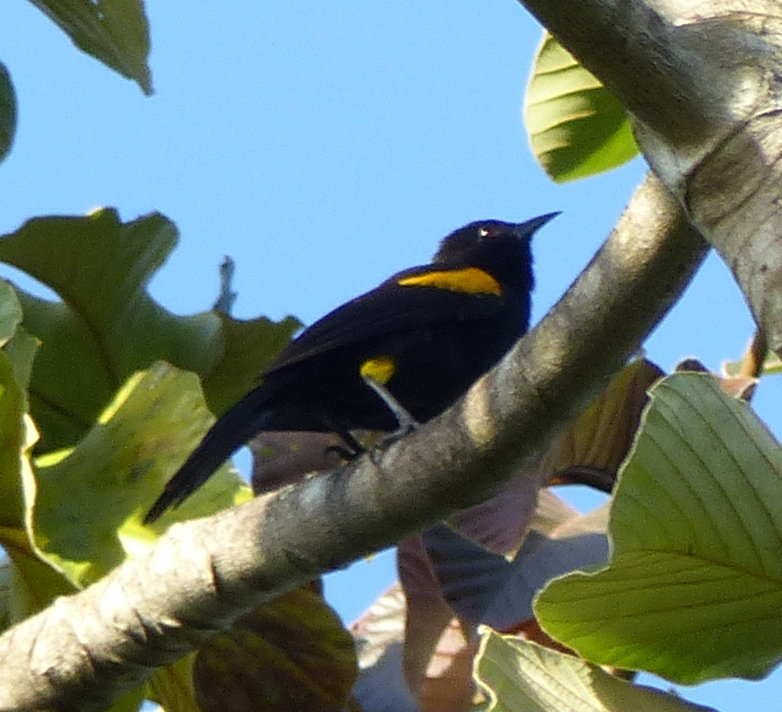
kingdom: Animalia
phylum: Chordata
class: Aves
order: Passeriformes
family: Icteridae
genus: Icterus
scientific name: Icterus cayanensis
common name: Epaulet oriole
